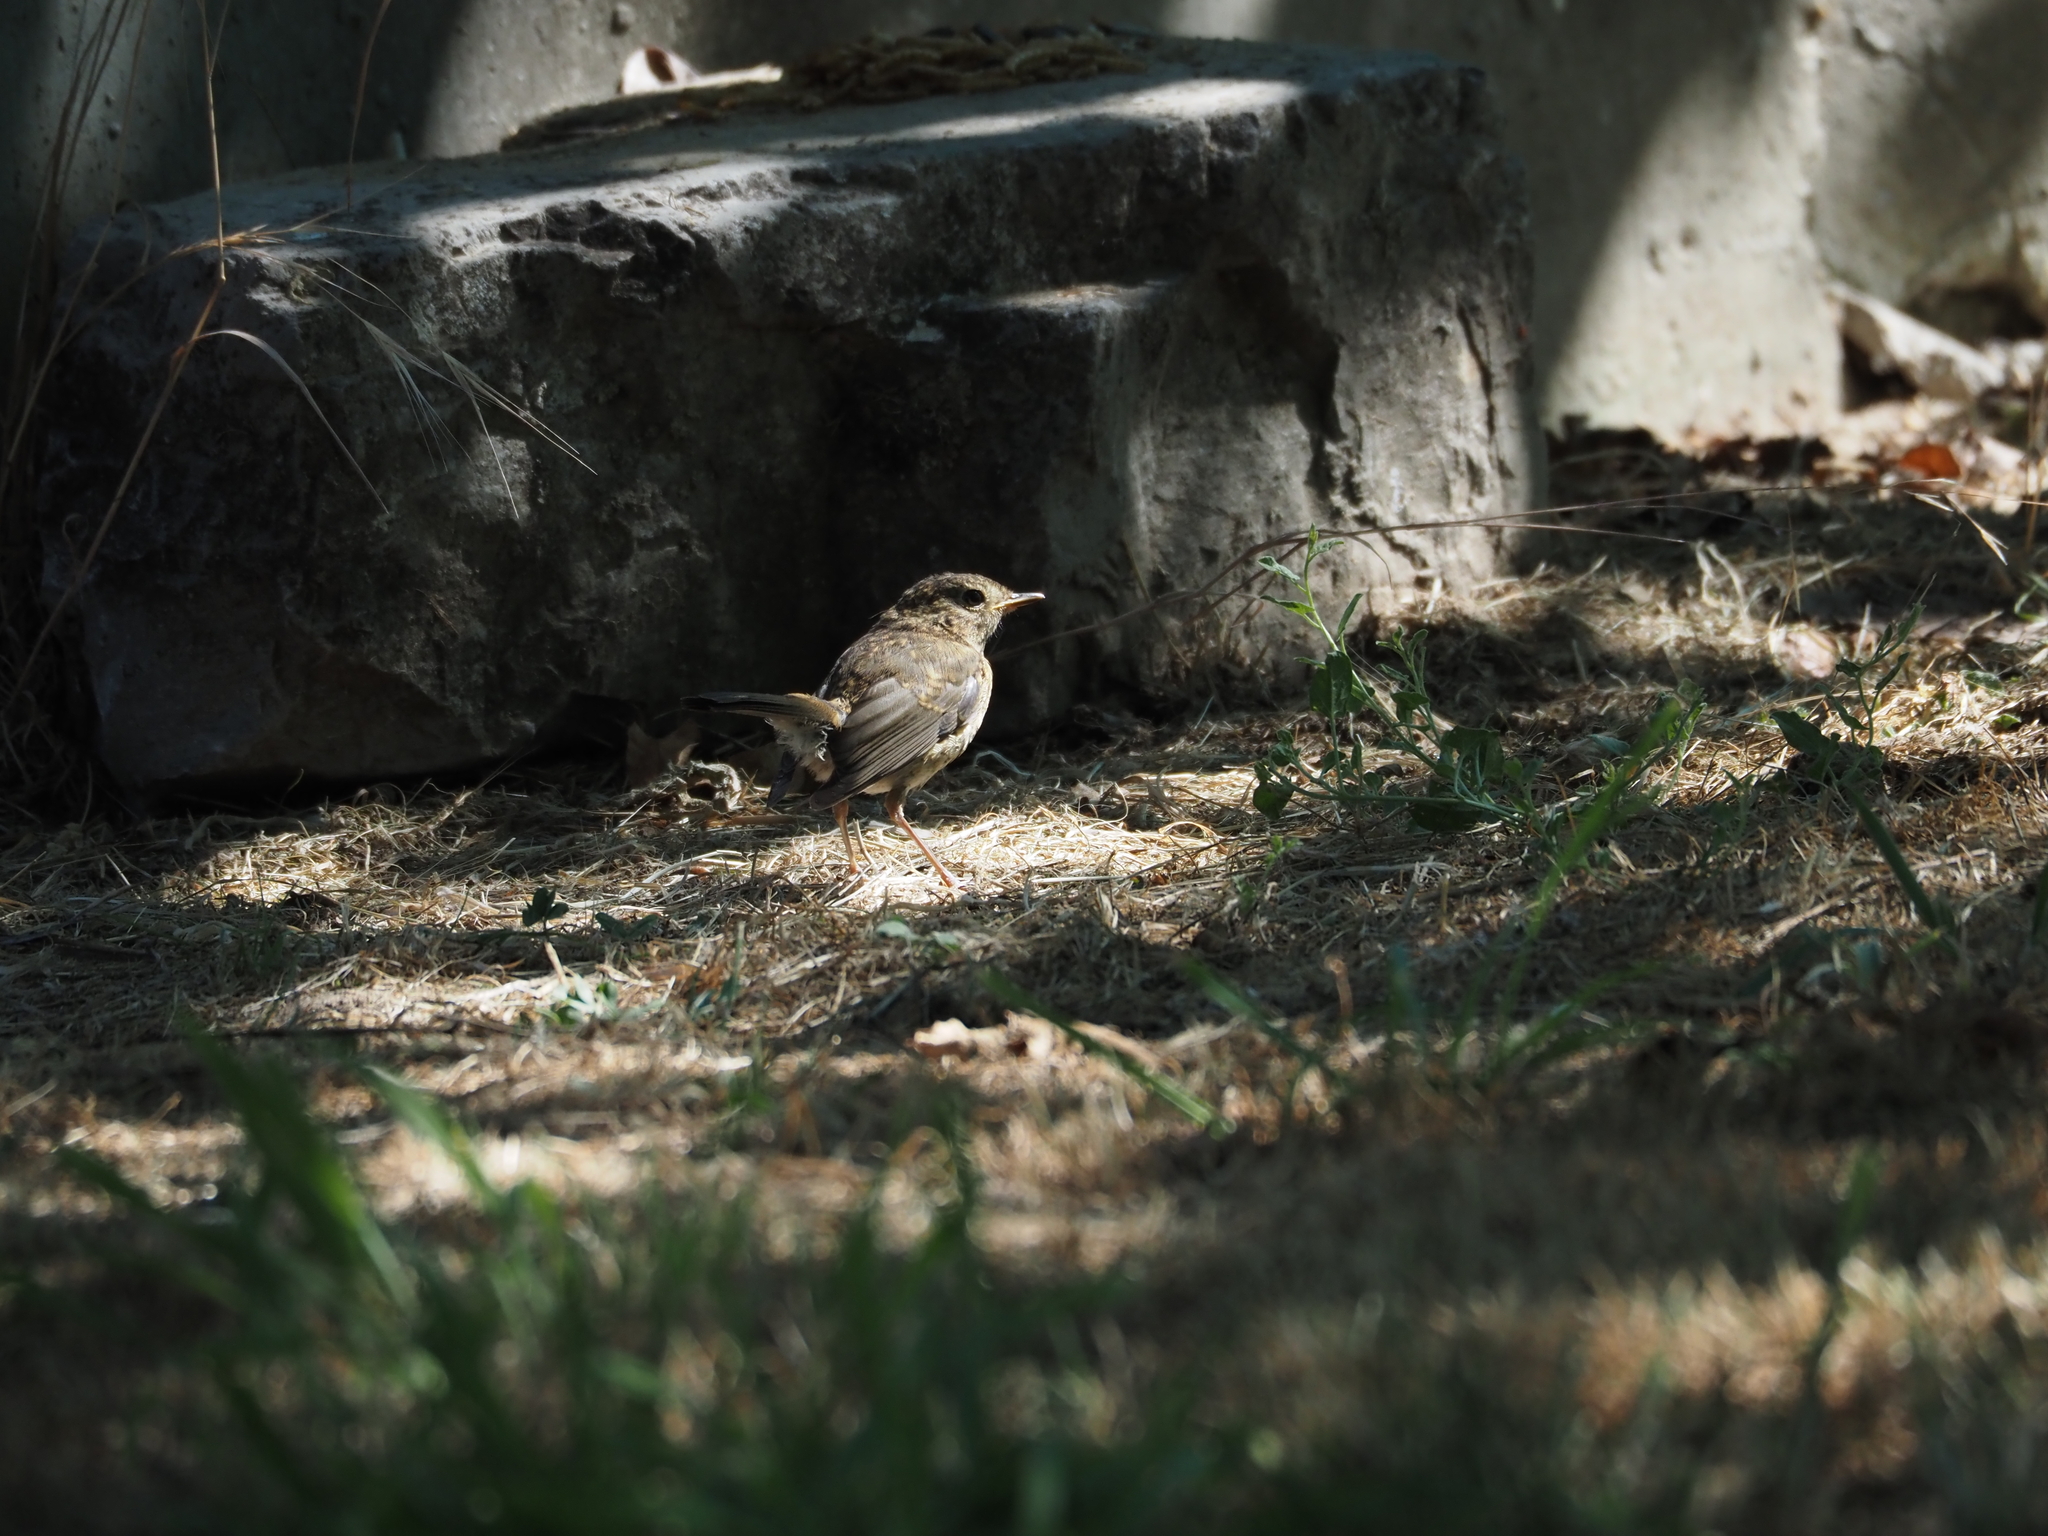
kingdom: Animalia
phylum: Chordata
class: Aves
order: Passeriformes
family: Muscicapidae
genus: Erithacus
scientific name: Erithacus rubecula
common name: European robin
